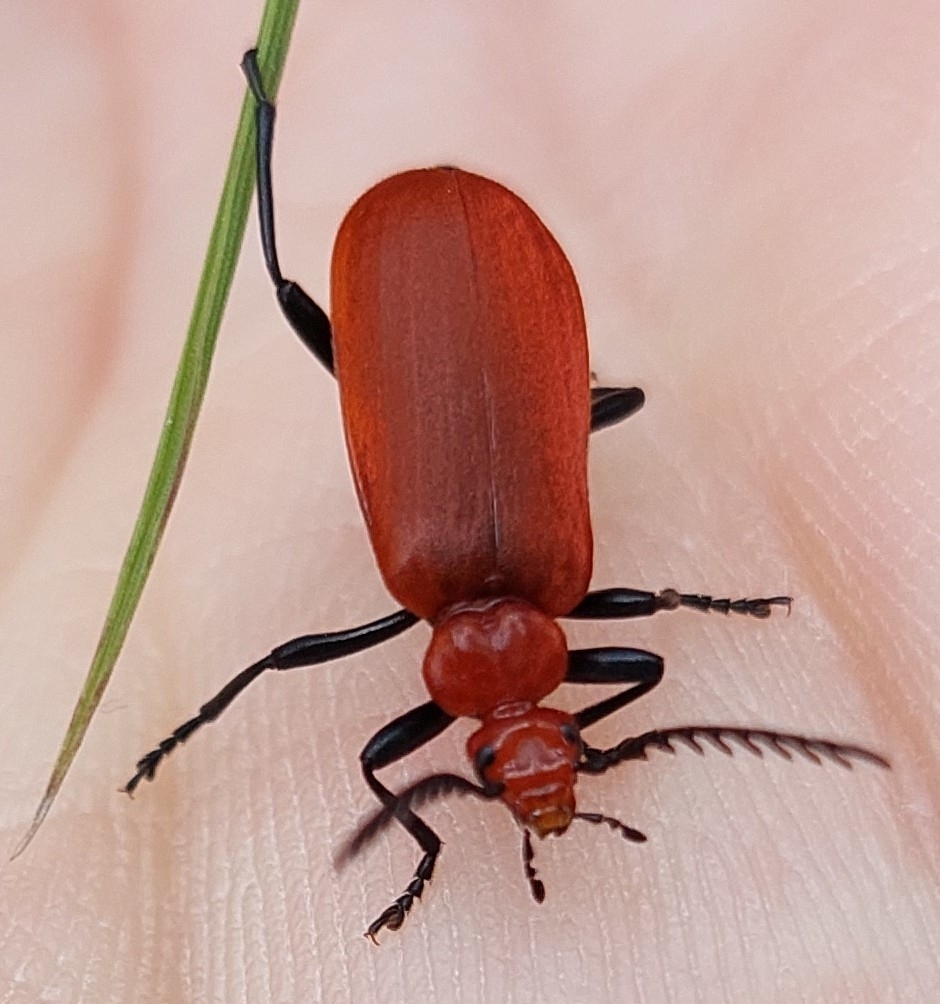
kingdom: Animalia
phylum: Arthropoda
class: Insecta
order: Coleoptera
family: Pyrochroidae
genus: Pyrochroa
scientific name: Pyrochroa serraticornis
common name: Red-headed cardinal beetle
